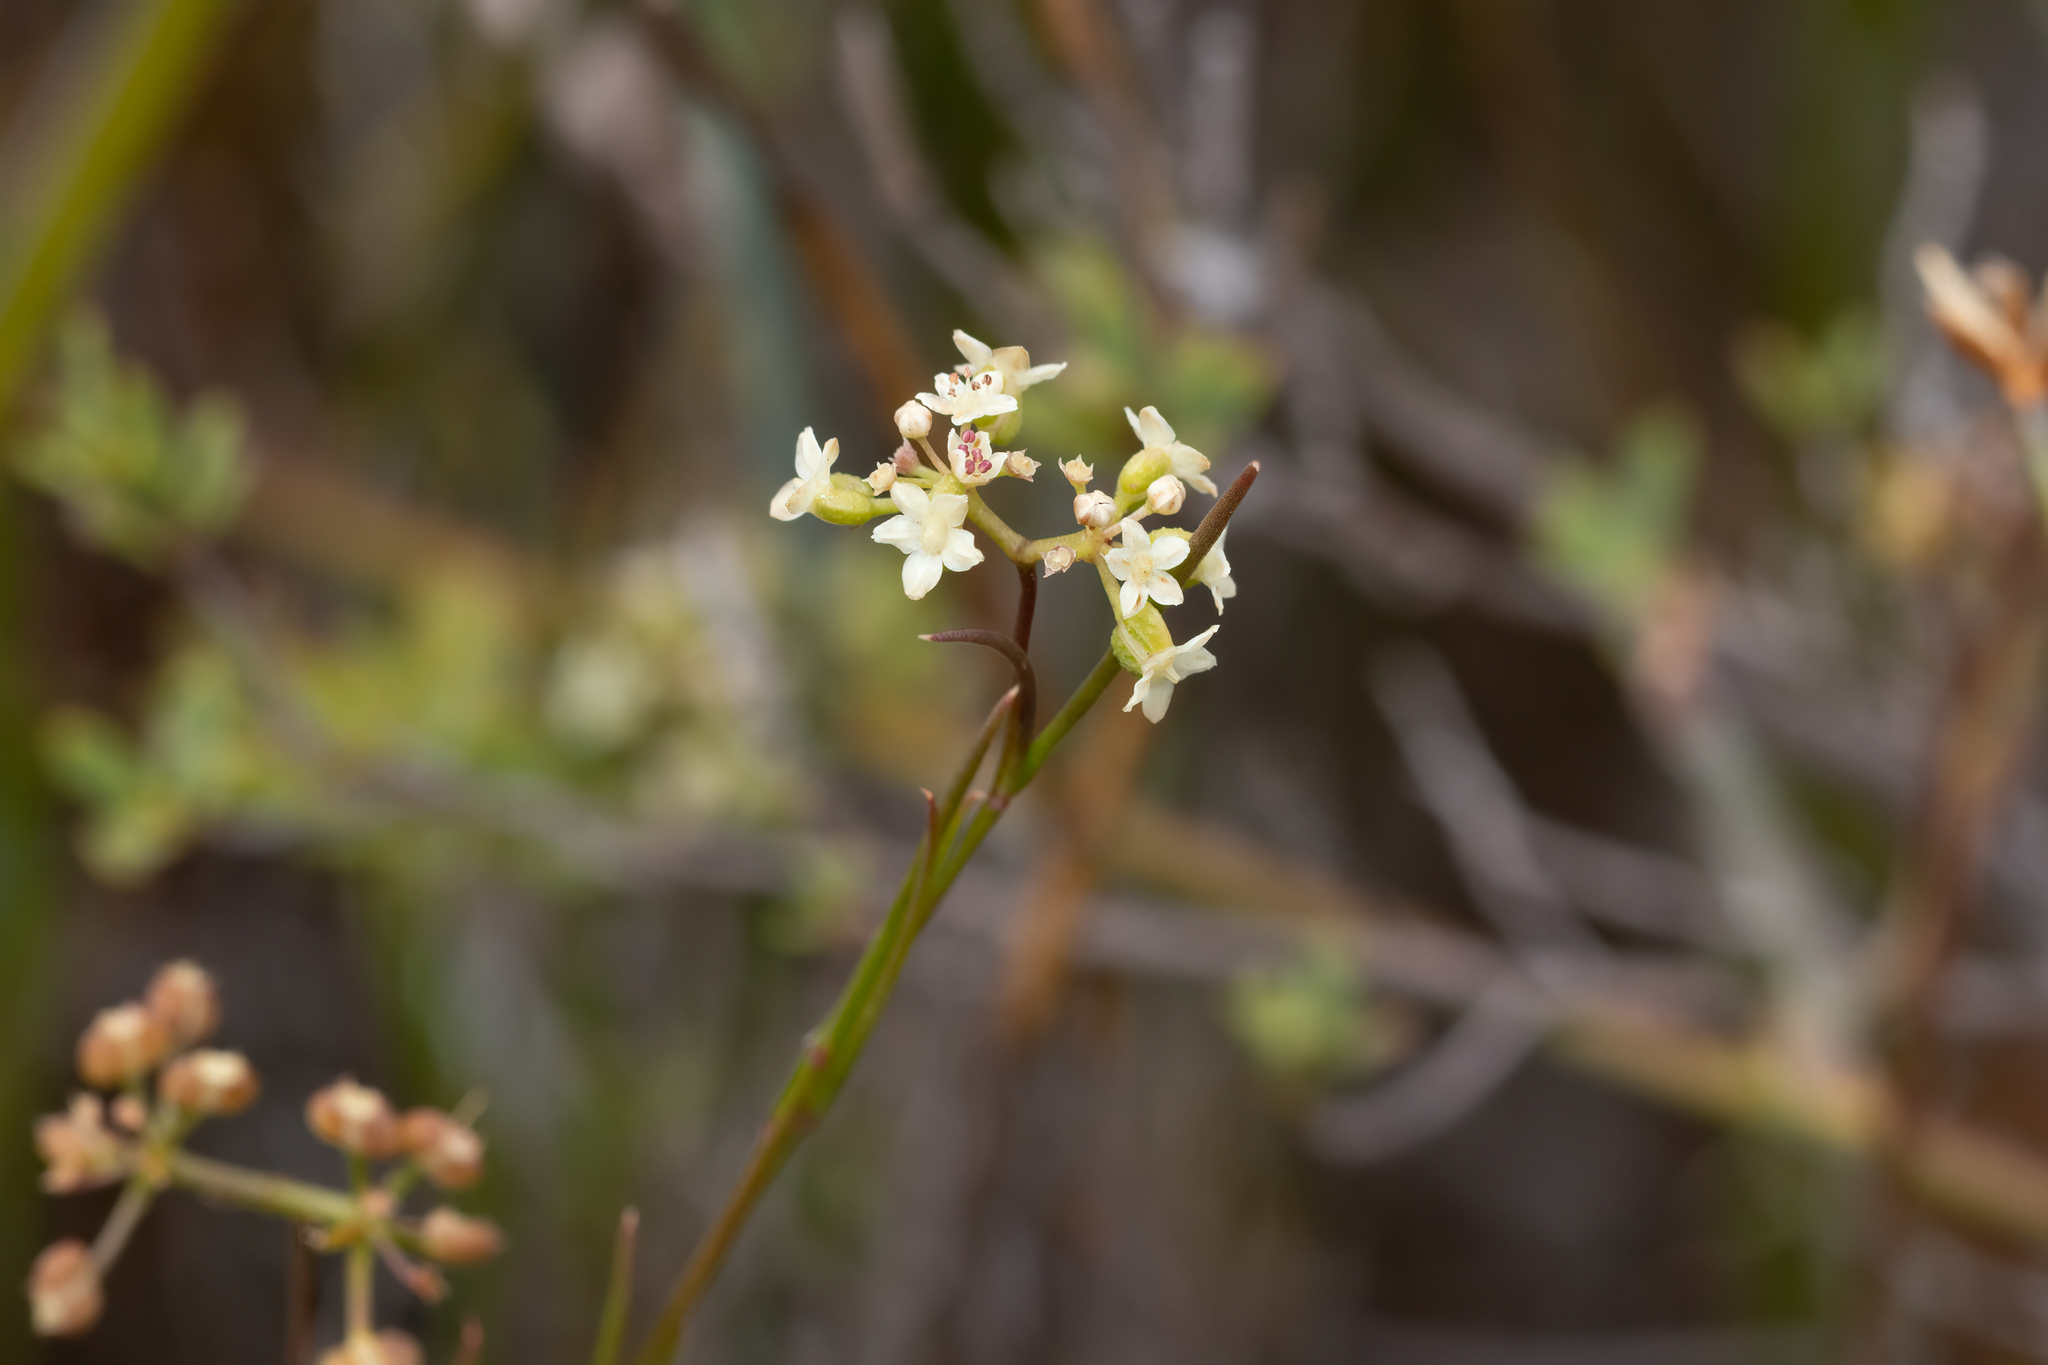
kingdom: Plantae
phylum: Tracheophyta
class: Magnoliopsida
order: Apiales
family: Apiaceae
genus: Platysace
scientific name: Platysace heterophylla
